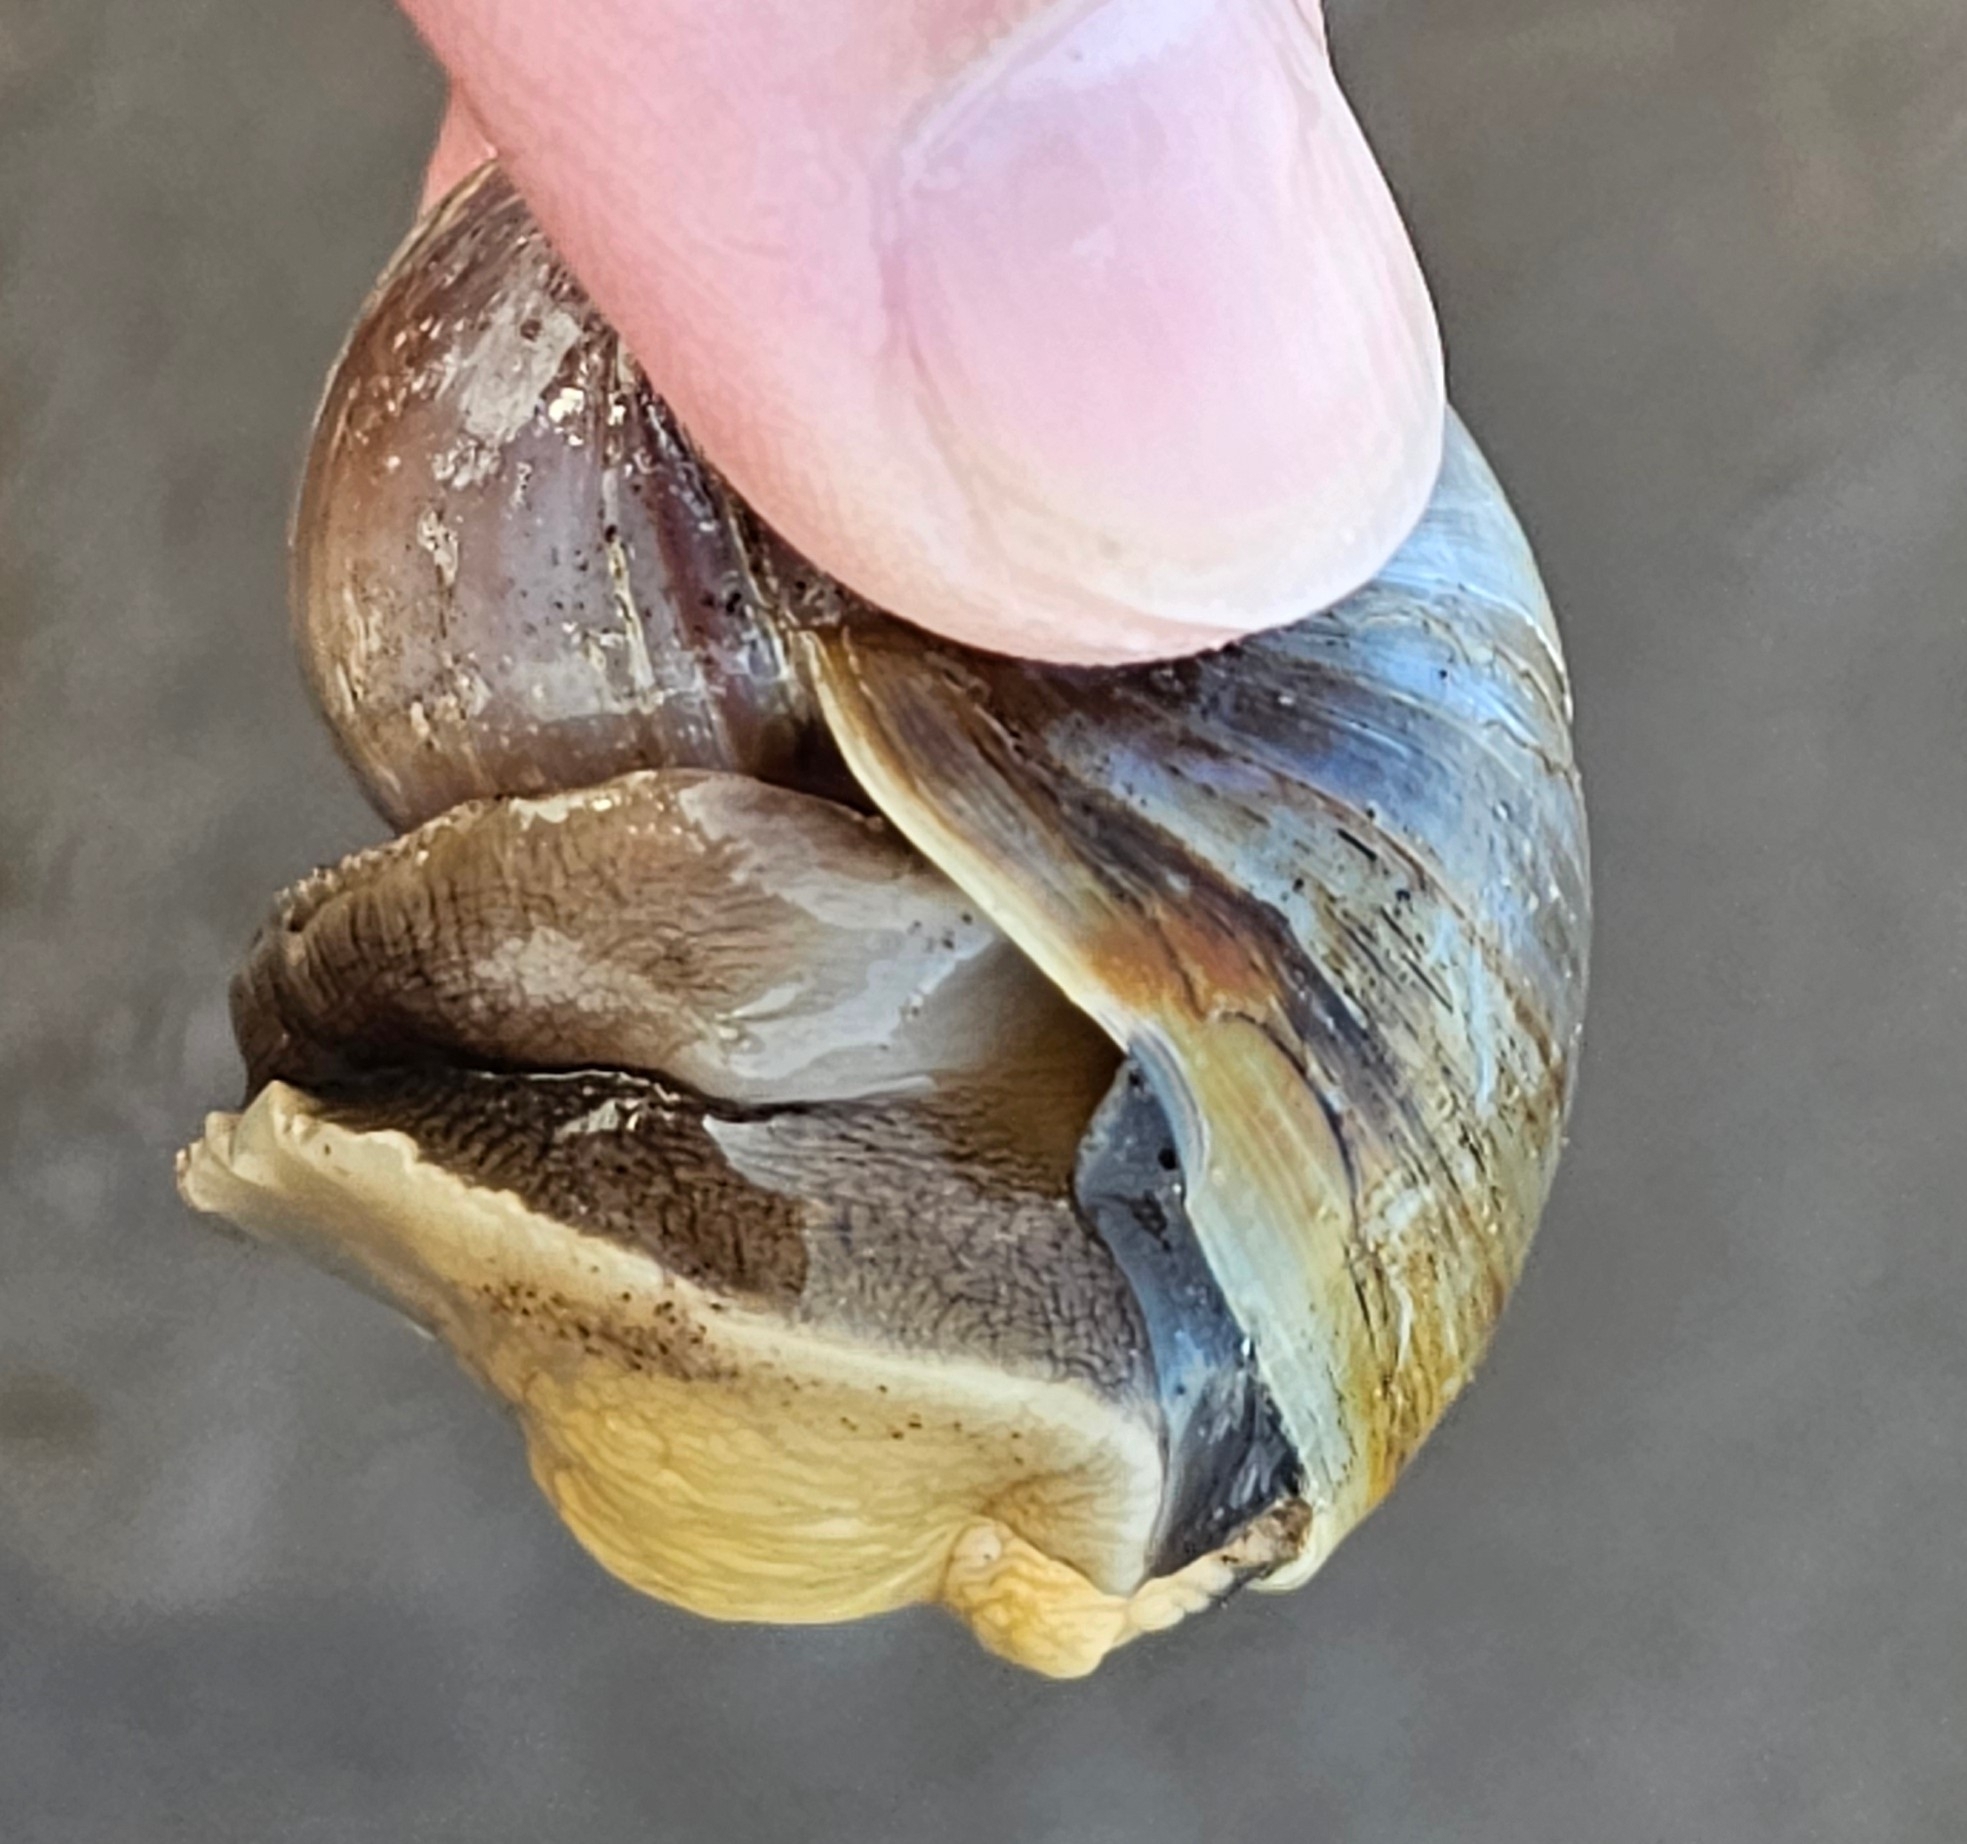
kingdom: Animalia
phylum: Mollusca
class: Gastropoda
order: Littorinimorpha
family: Naticidae
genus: Euspira
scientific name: Euspira heros
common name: Common northern moonsnail
